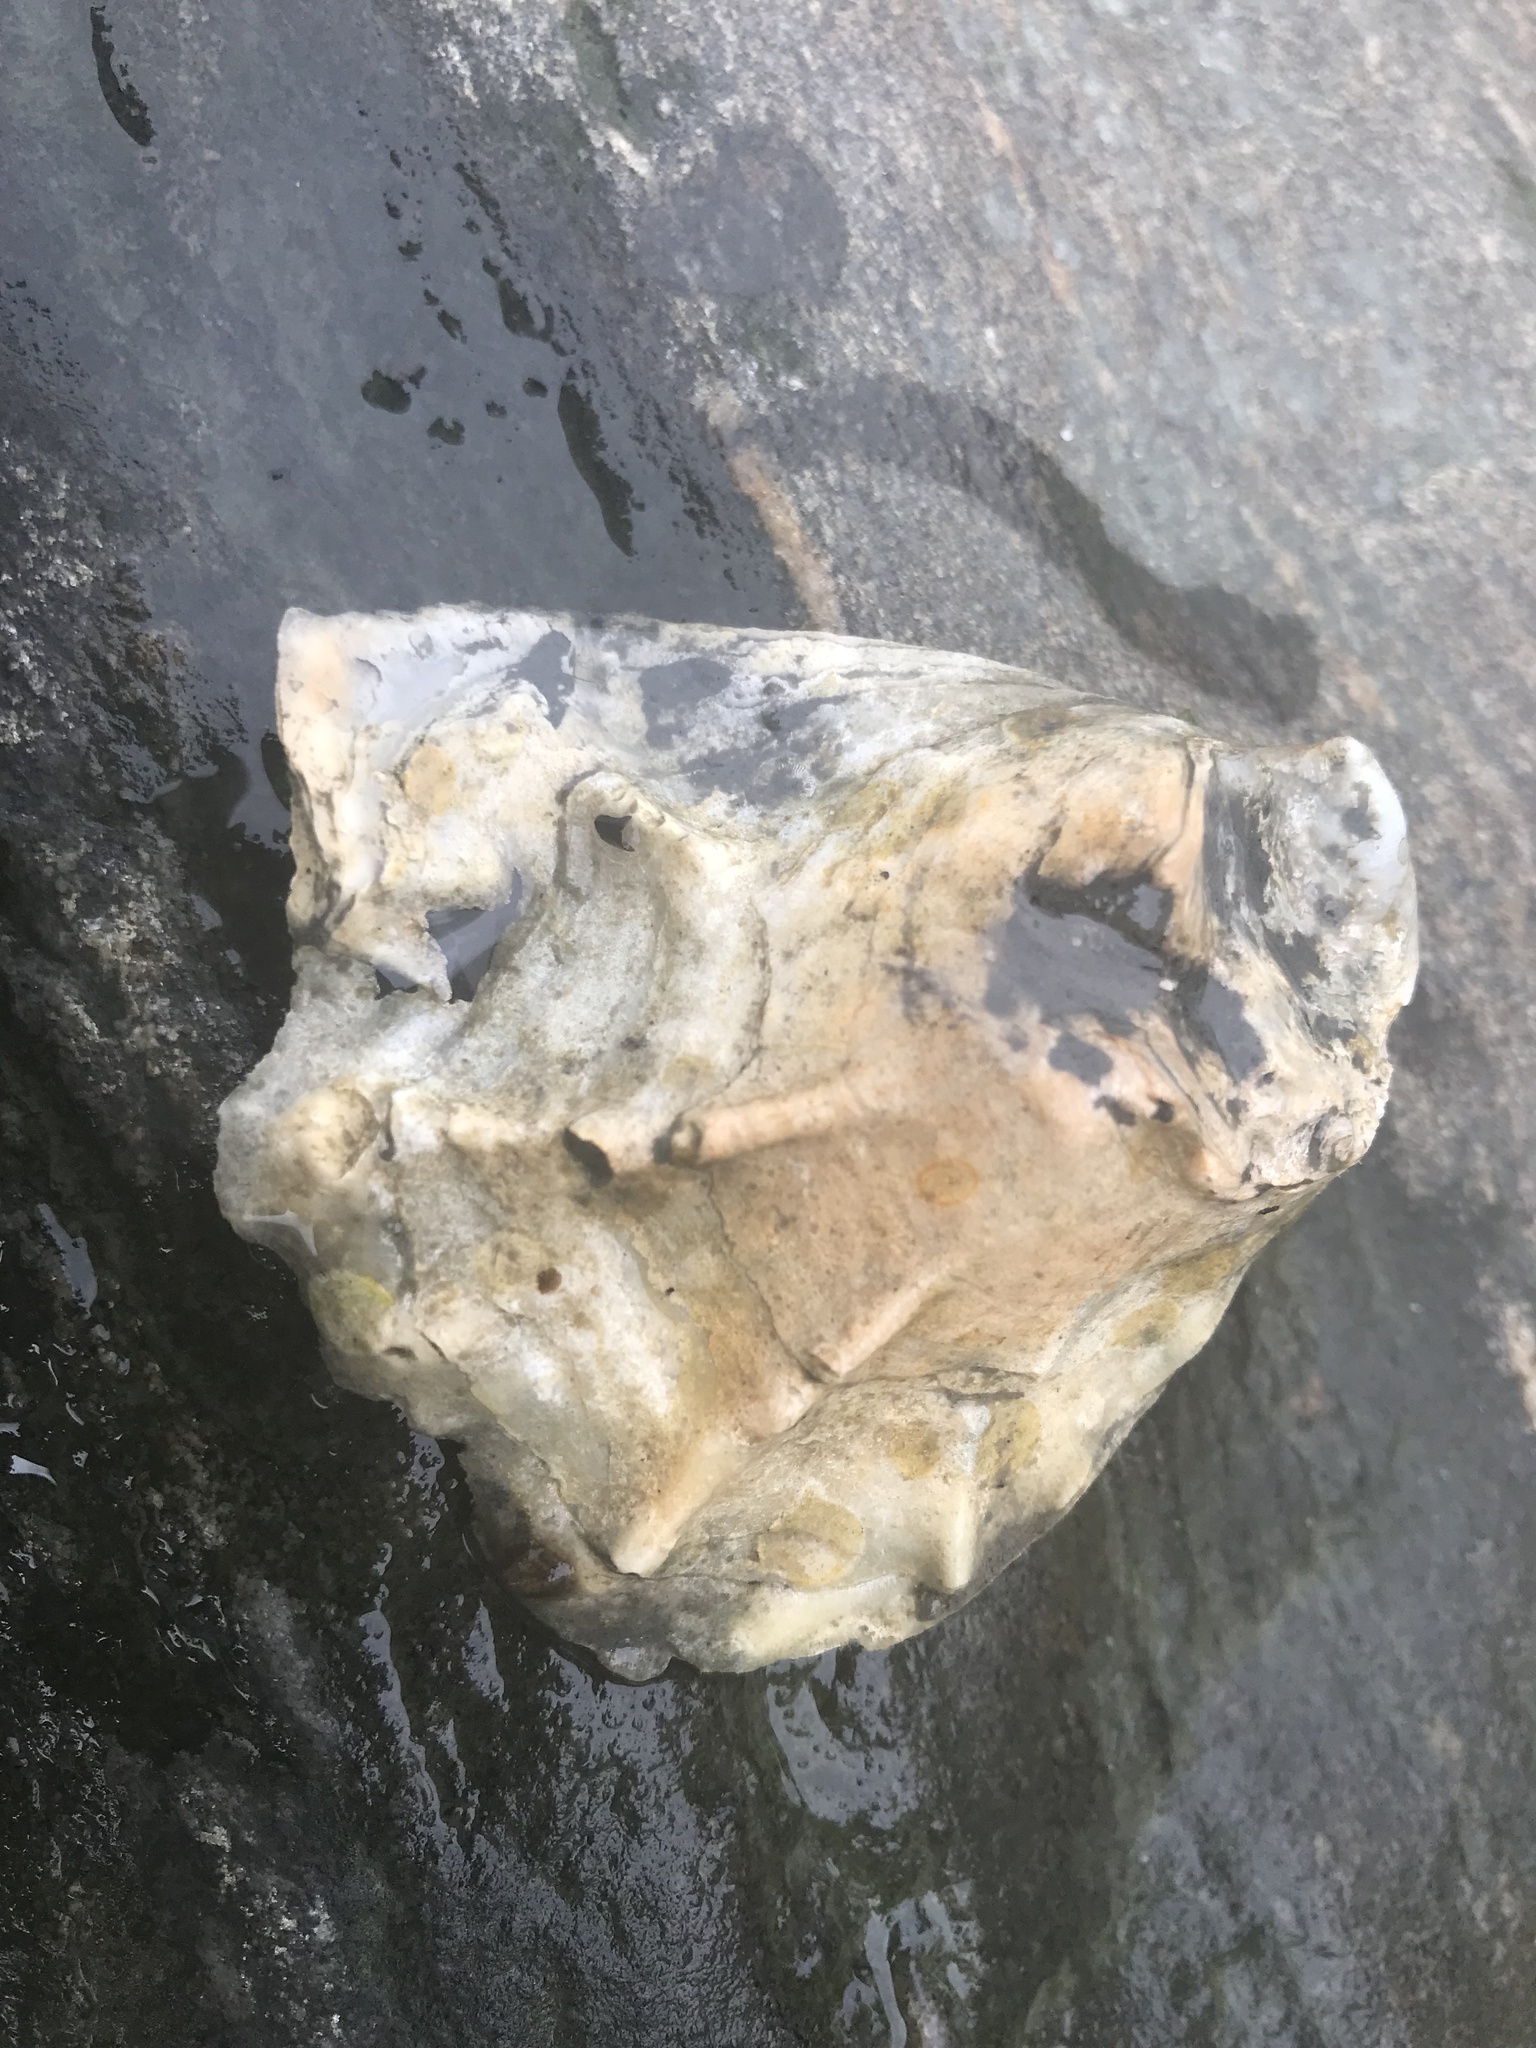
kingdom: Animalia
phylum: Mollusca
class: Bivalvia
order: Ostreida
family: Ostreidae
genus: Crassostrea
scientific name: Crassostrea virginica
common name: American oyster
